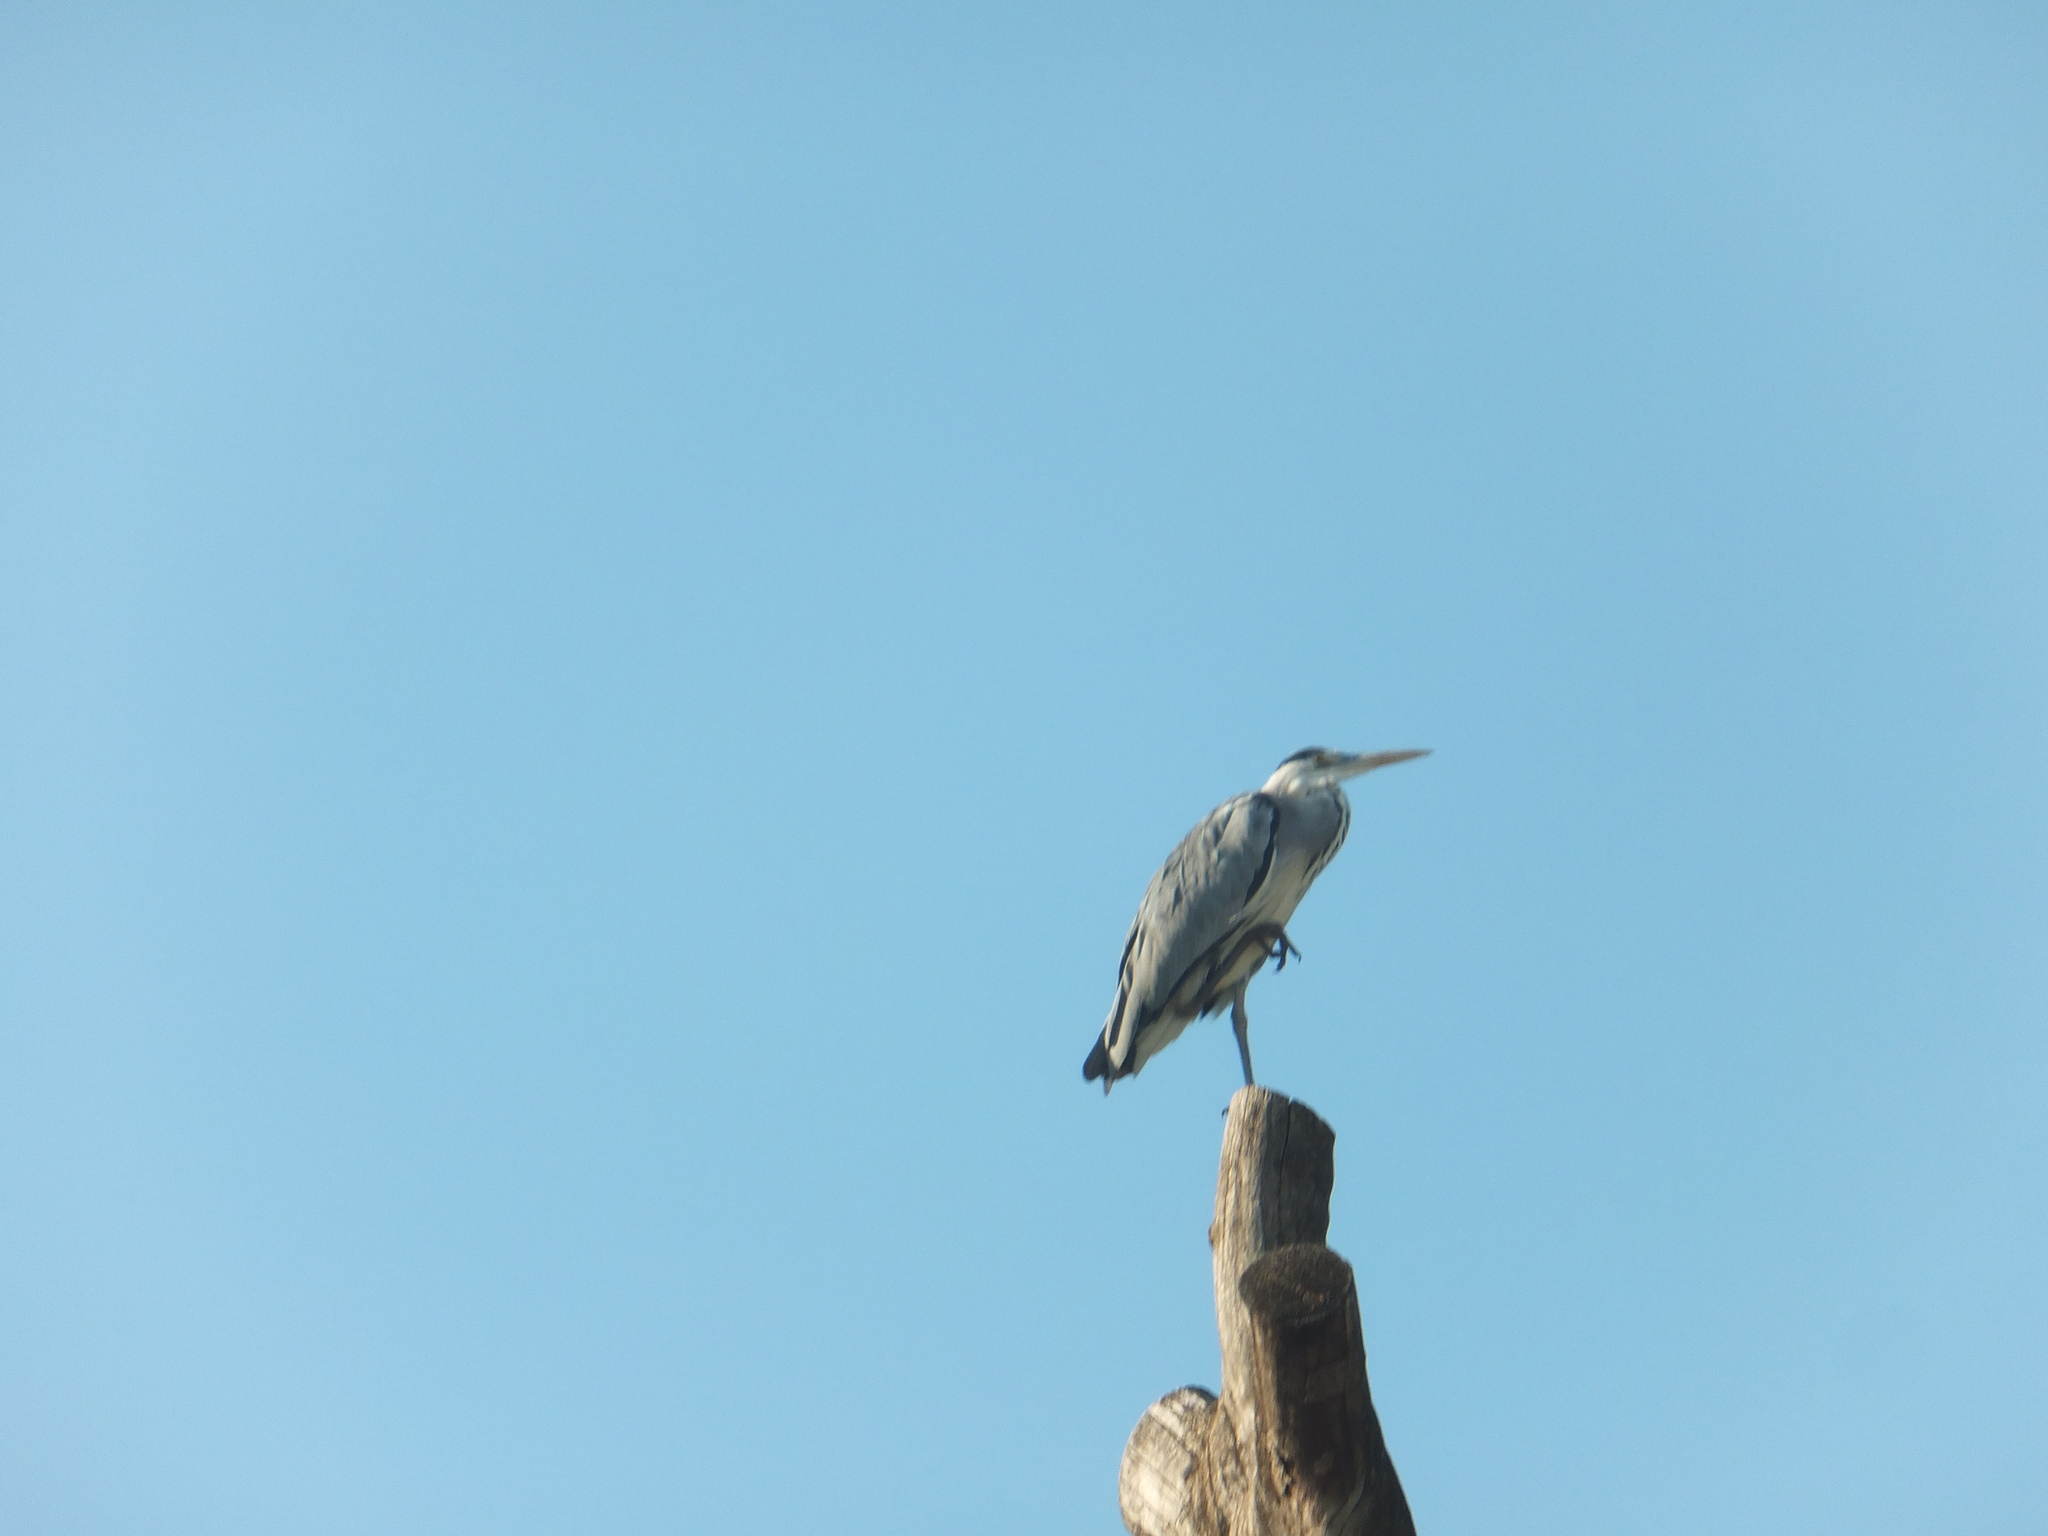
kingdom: Animalia
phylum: Chordata
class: Aves
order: Pelecaniformes
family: Ardeidae
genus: Ardea
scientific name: Ardea cinerea
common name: Grey heron
